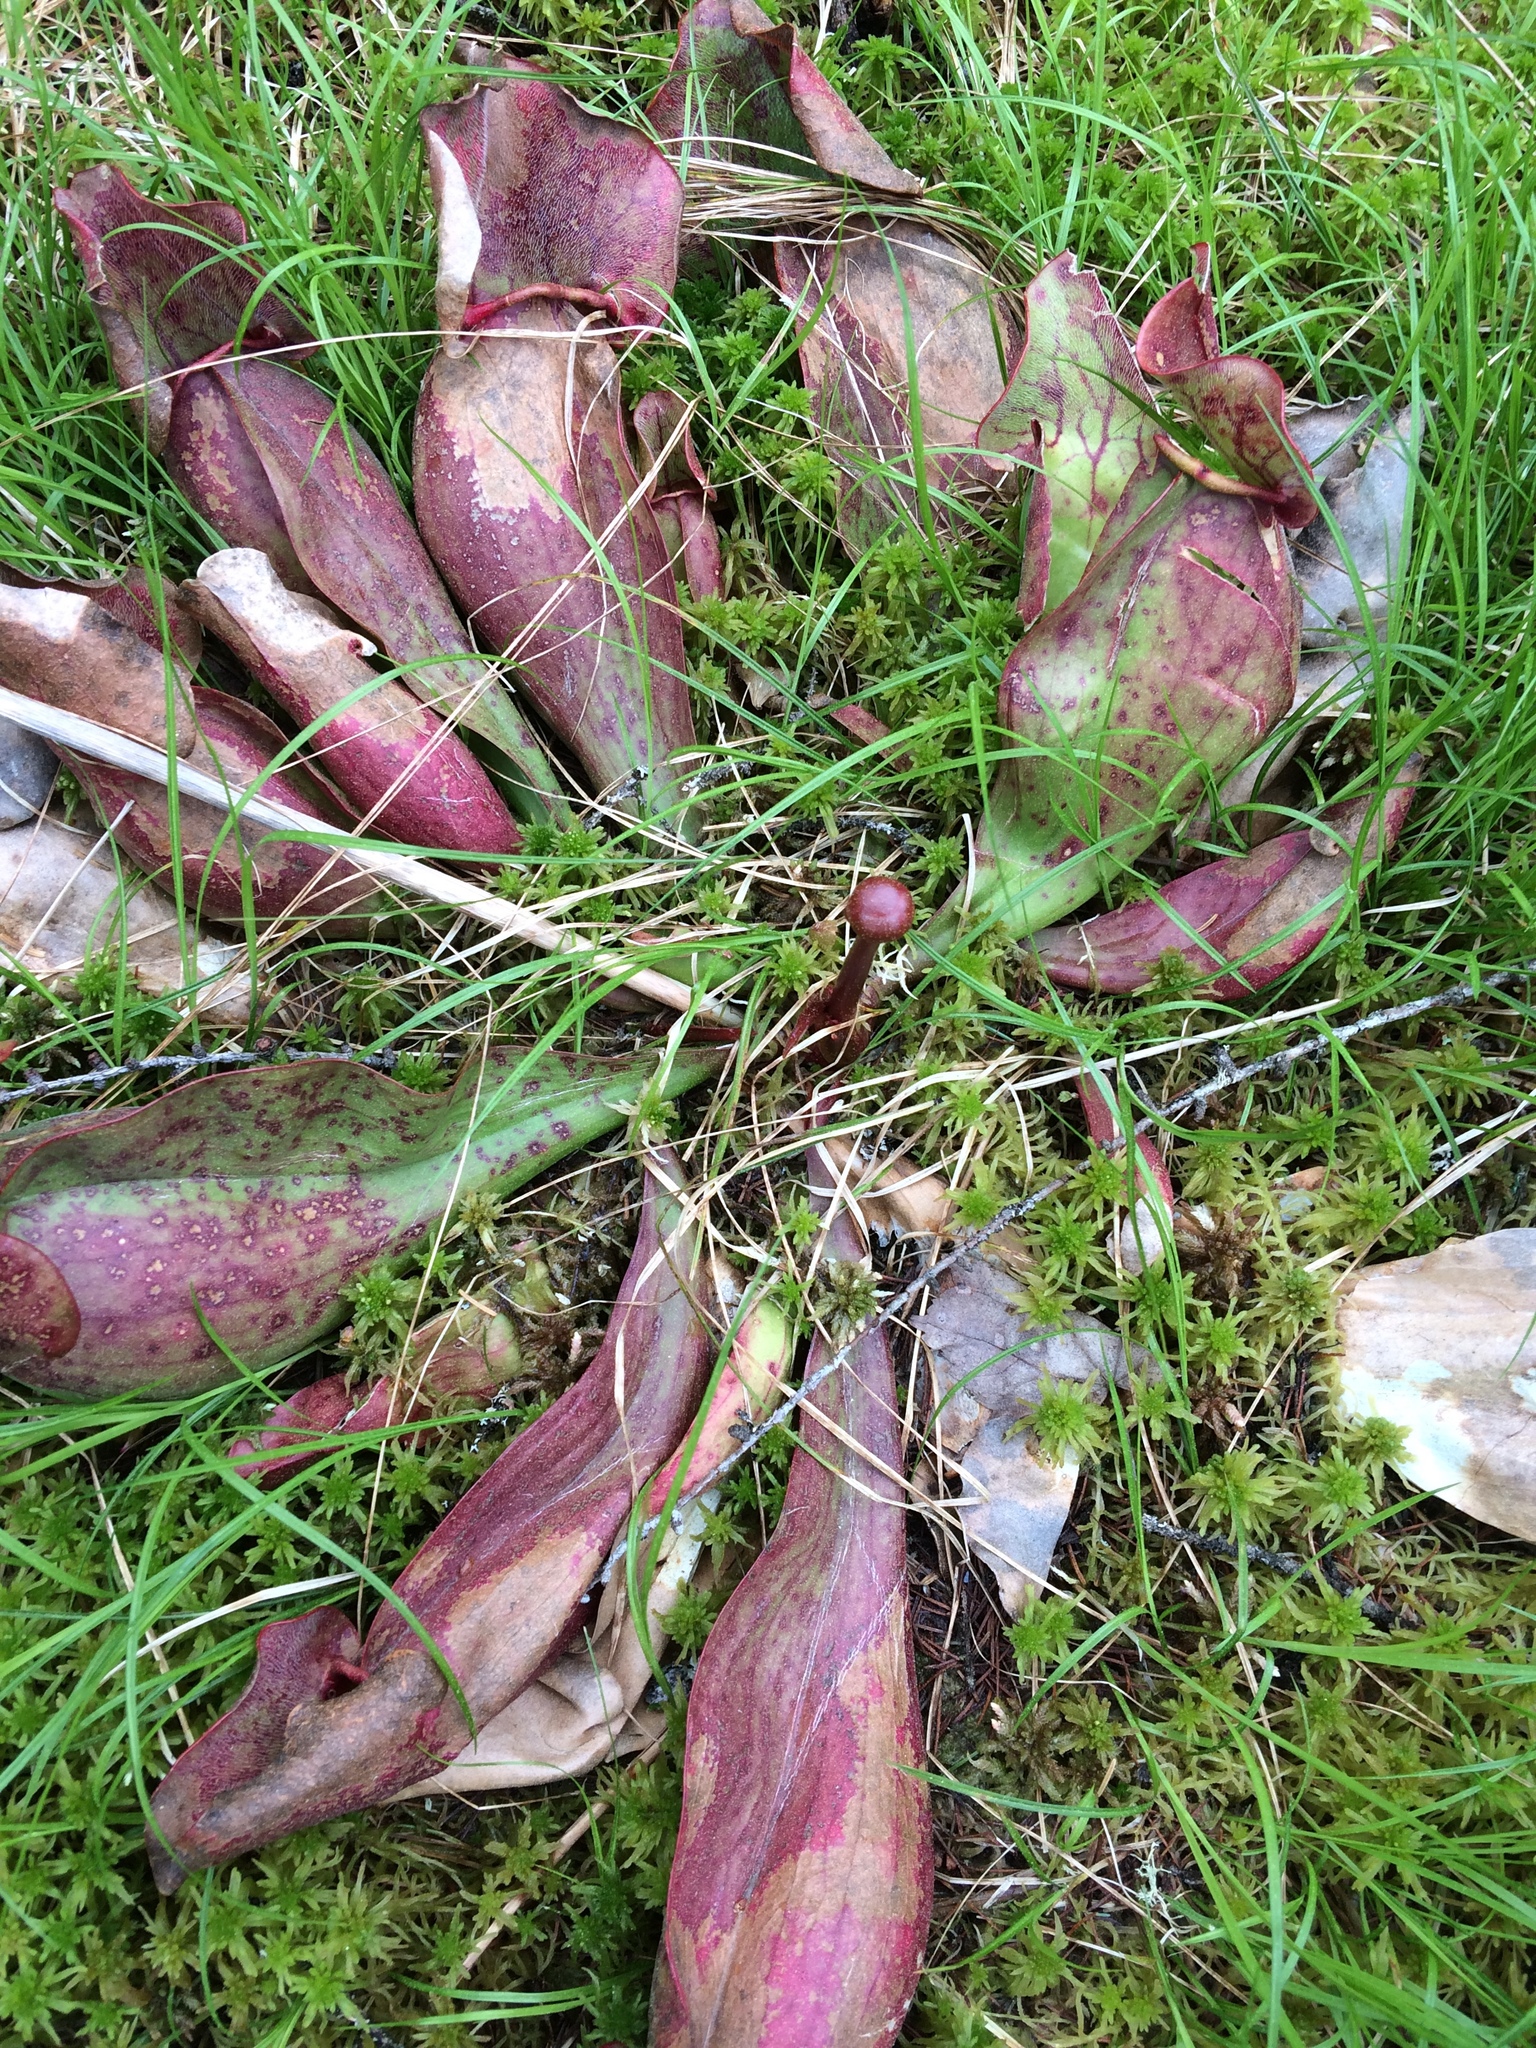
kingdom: Plantae
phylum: Tracheophyta
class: Magnoliopsida
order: Ericales
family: Sarraceniaceae
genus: Sarracenia
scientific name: Sarracenia purpurea
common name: Pitcherplant
